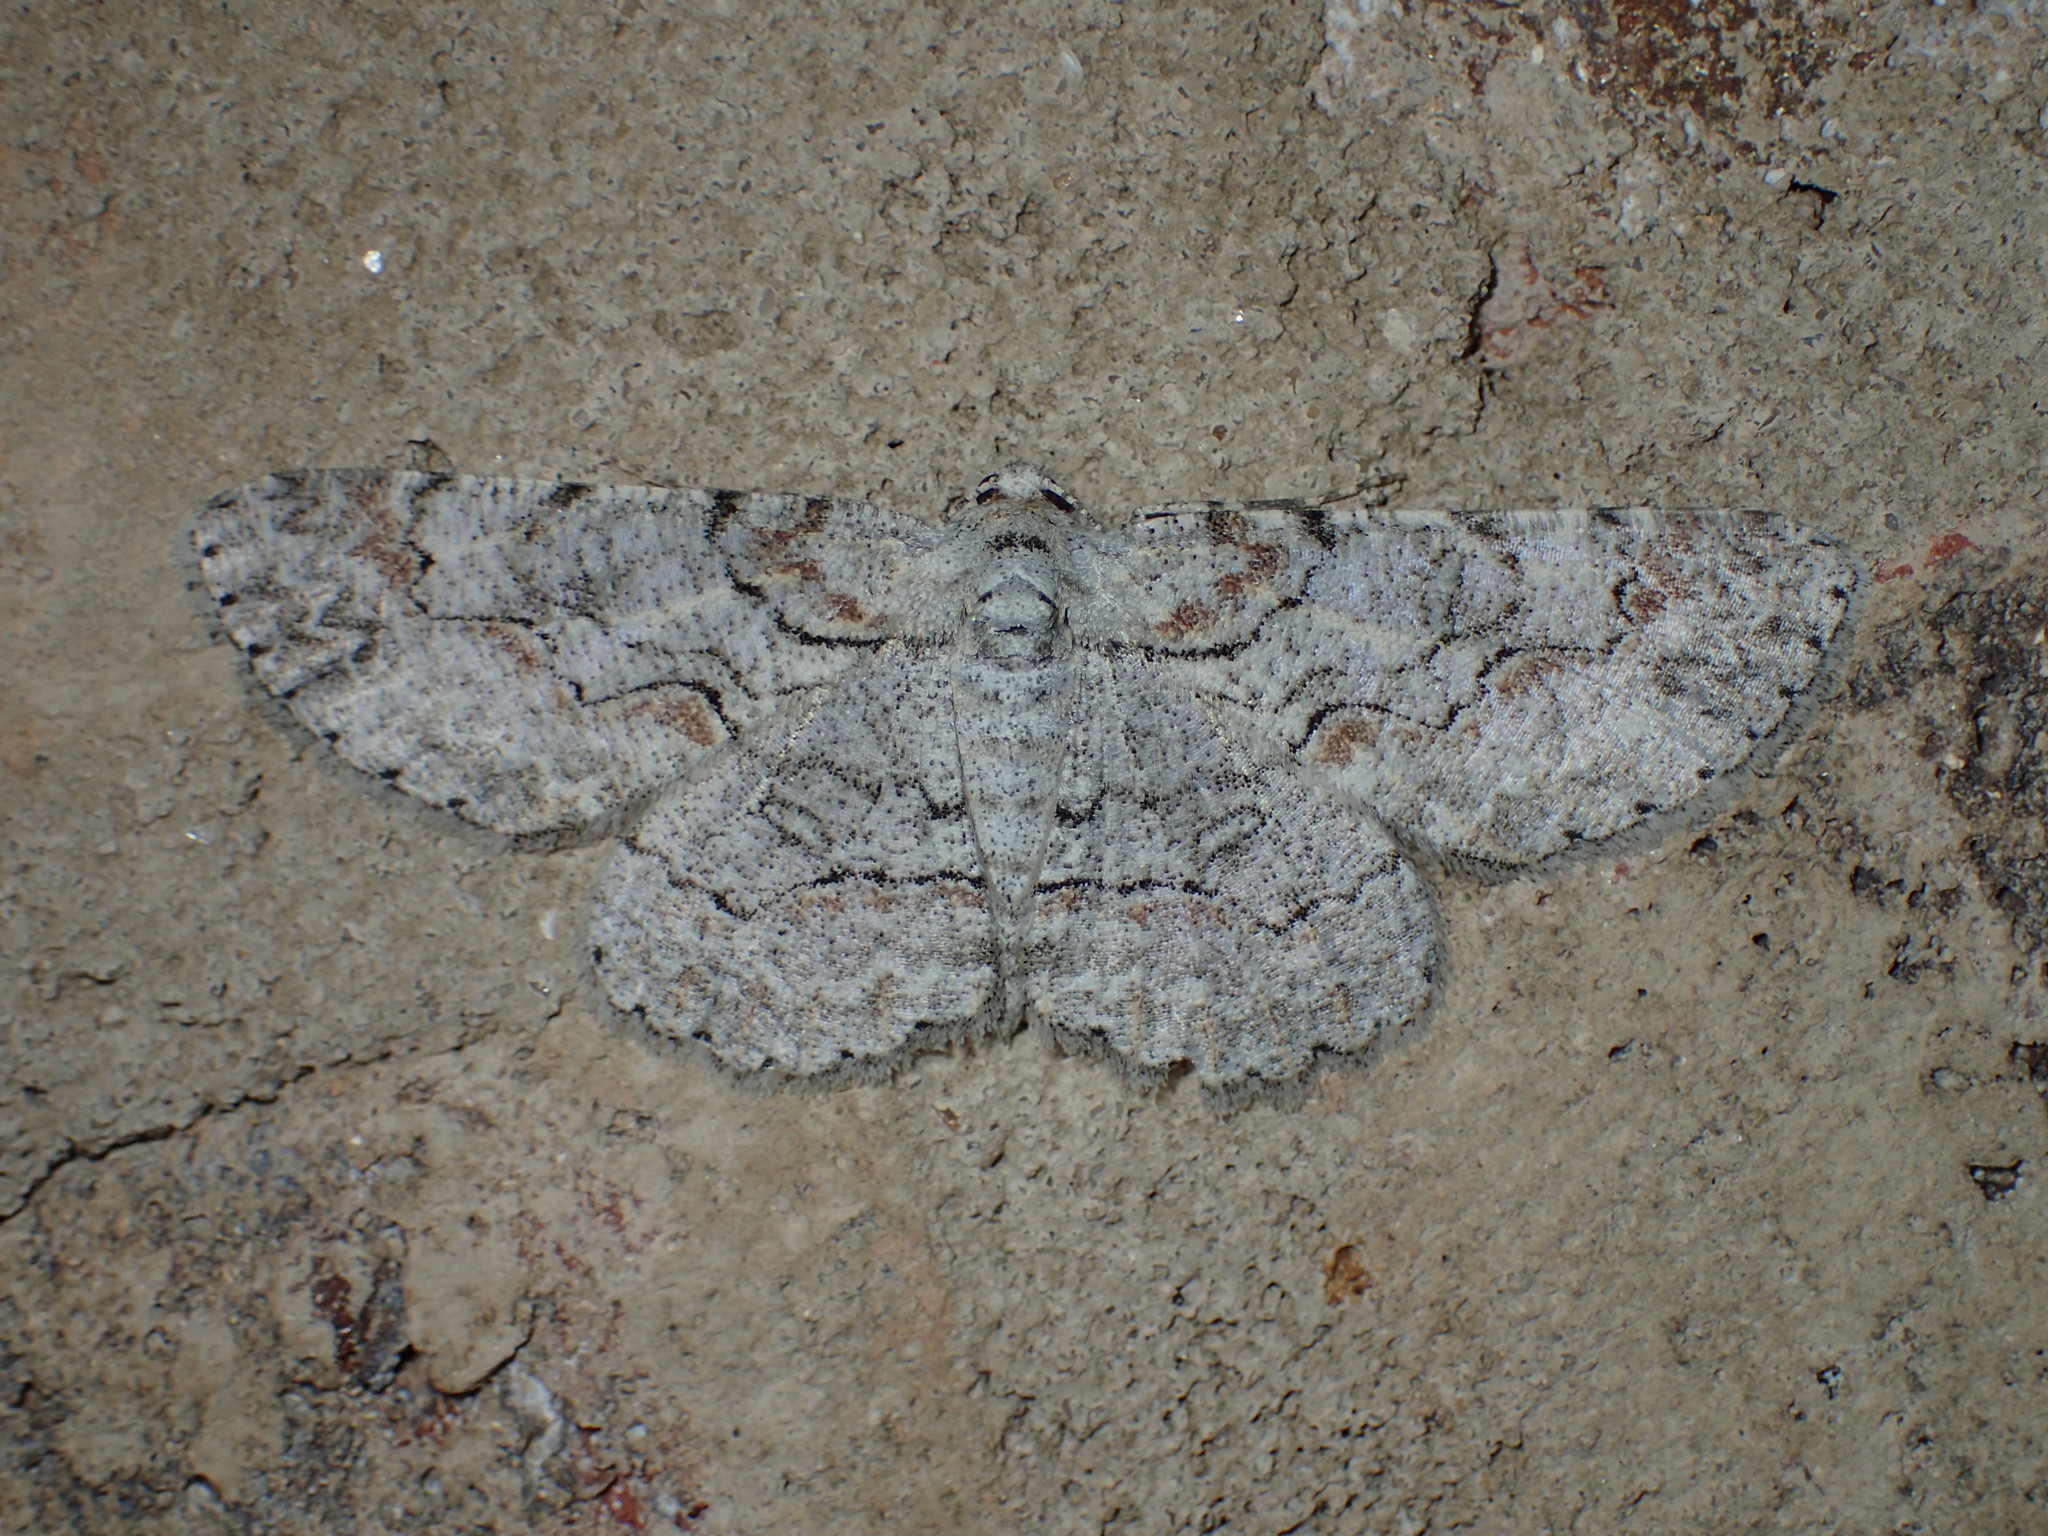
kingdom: Animalia
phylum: Arthropoda
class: Insecta
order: Lepidoptera
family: Geometridae
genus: Iridopsis
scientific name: Iridopsis defectaria
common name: Brown-shaded gray
